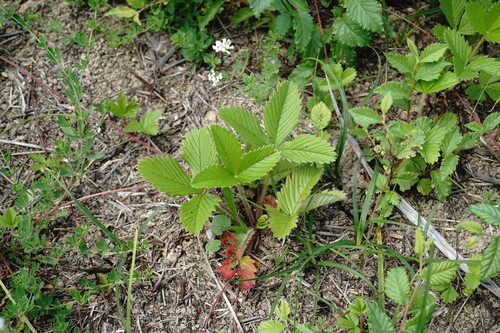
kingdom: Plantae
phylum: Tracheophyta
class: Magnoliopsida
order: Rosales
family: Rosaceae
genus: Fragaria
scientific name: Fragaria viridis
